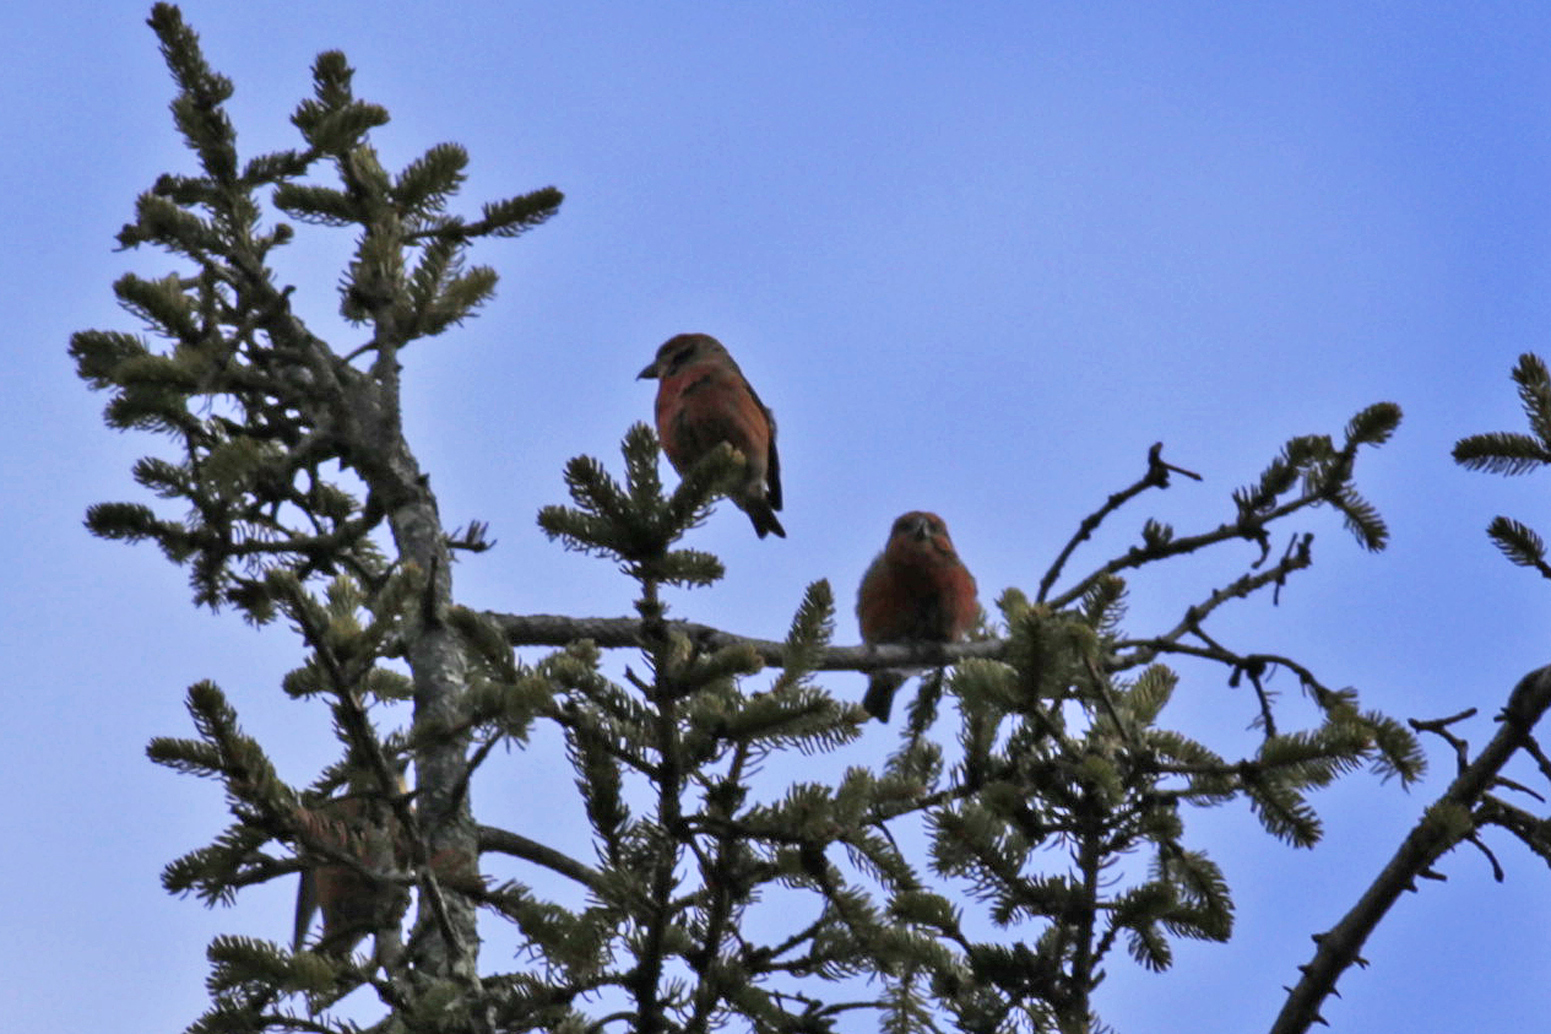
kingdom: Animalia
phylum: Chordata
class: Aves
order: Passeriformes
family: Fringillidae
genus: Loxia
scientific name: Loxia curvirostra
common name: Red crossbill
